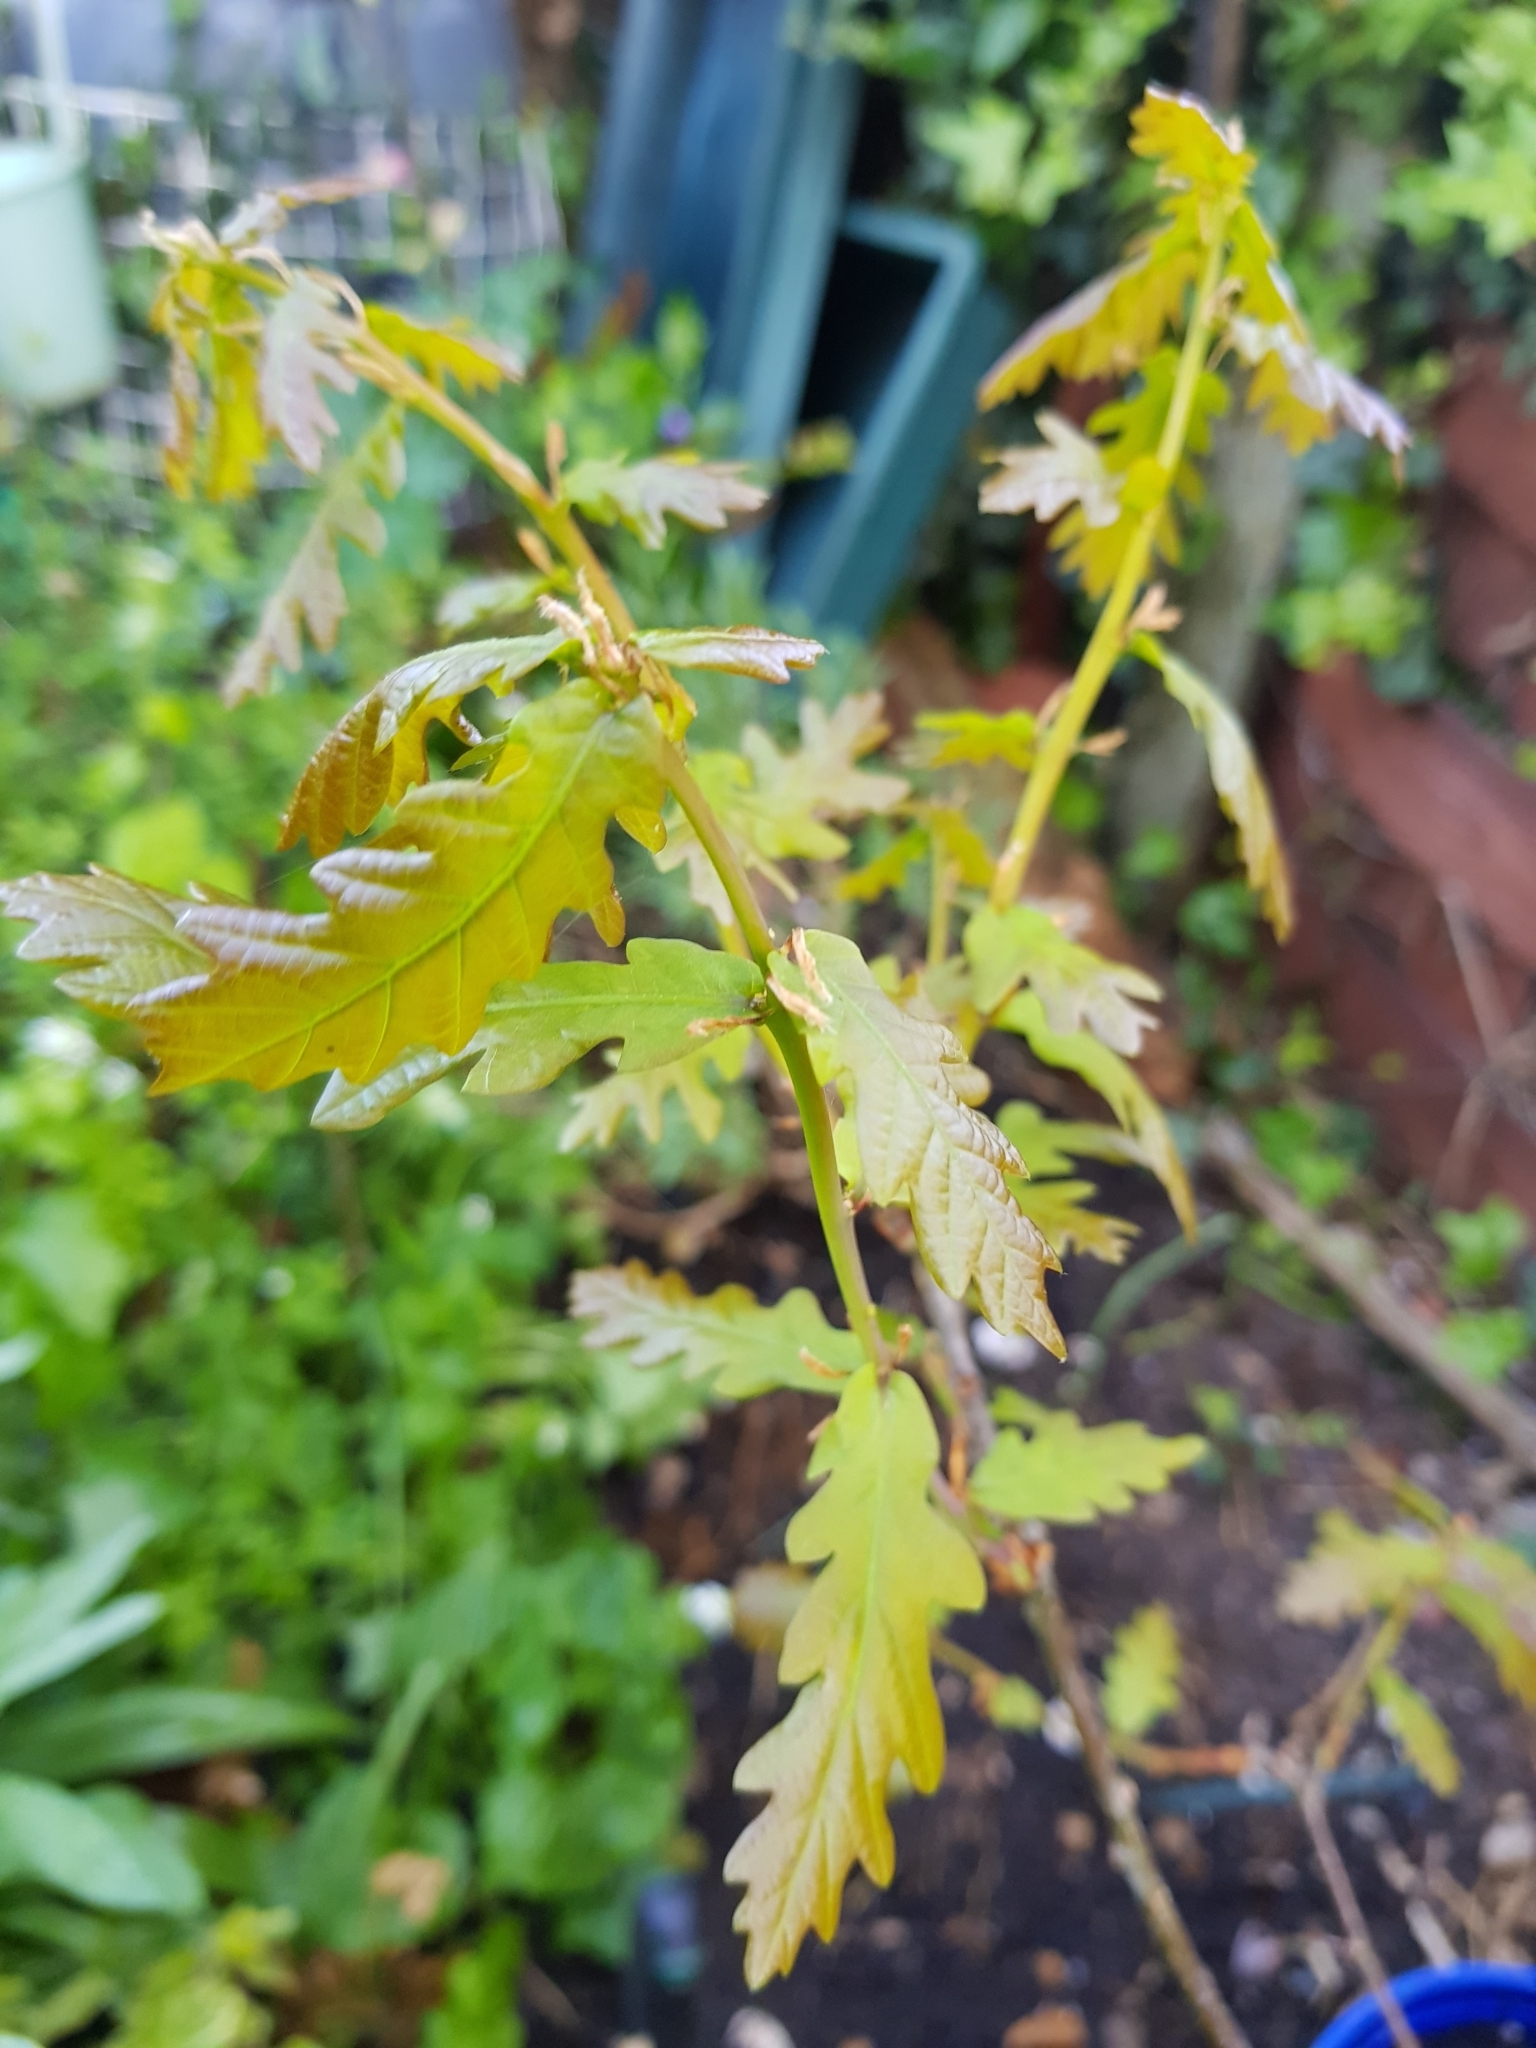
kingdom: Plantae
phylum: Tracheophyta
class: Magnoliopsida
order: Fagales
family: Fagaceae
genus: Quercus
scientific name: Quercus robur
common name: Pedunculate oak
